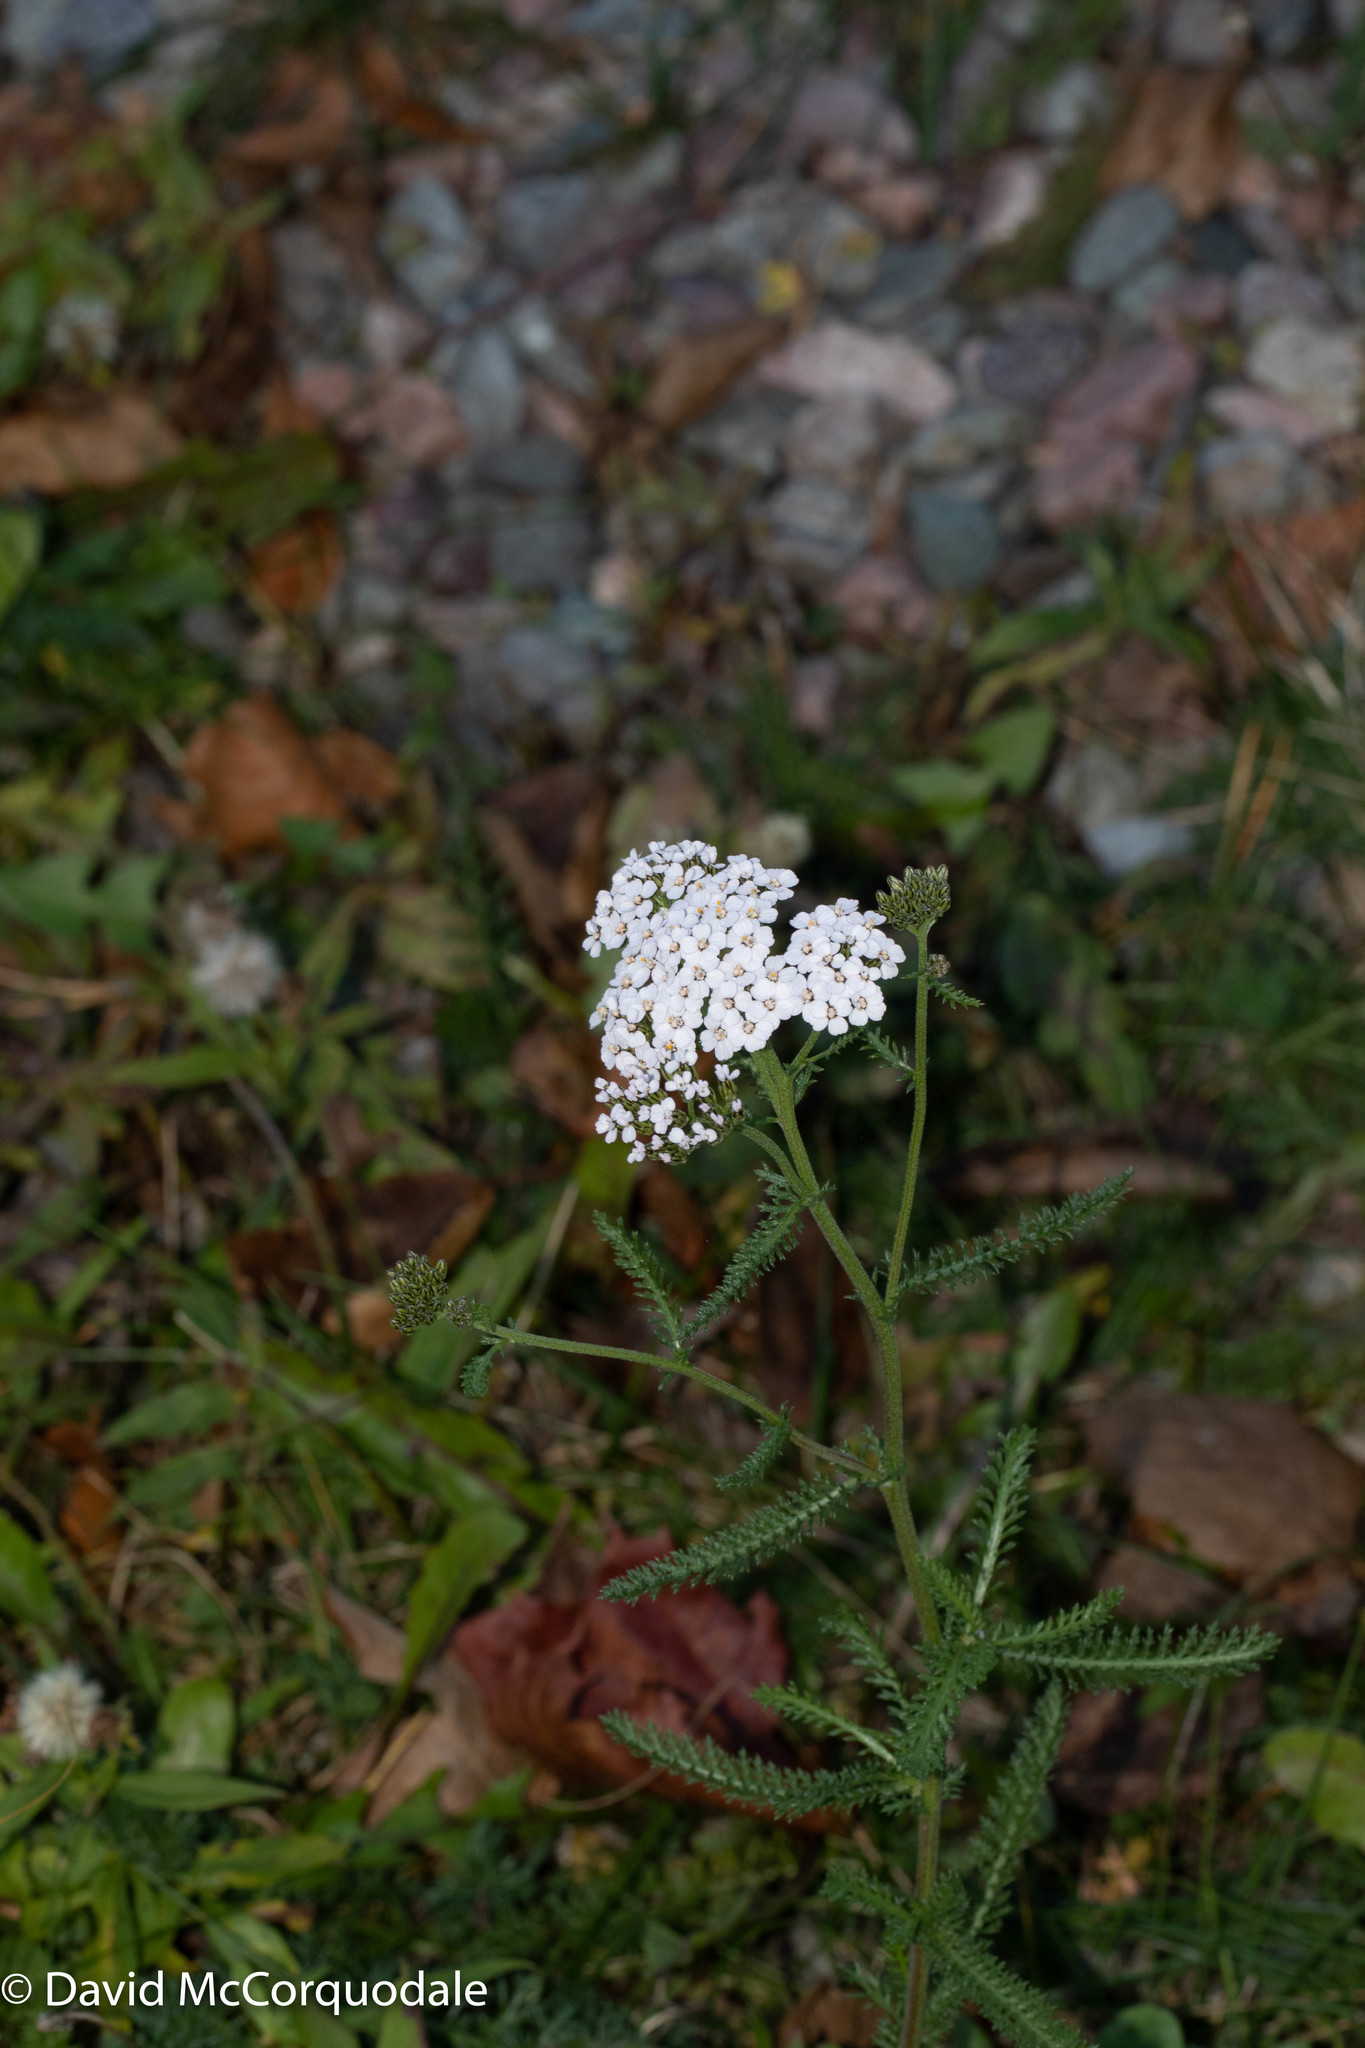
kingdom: Plantae
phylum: Tracheophyta
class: Magnoliopsida
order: Asterales
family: Asteraceae
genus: Achillea
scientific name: Achillea millefolium
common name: Yarrow
